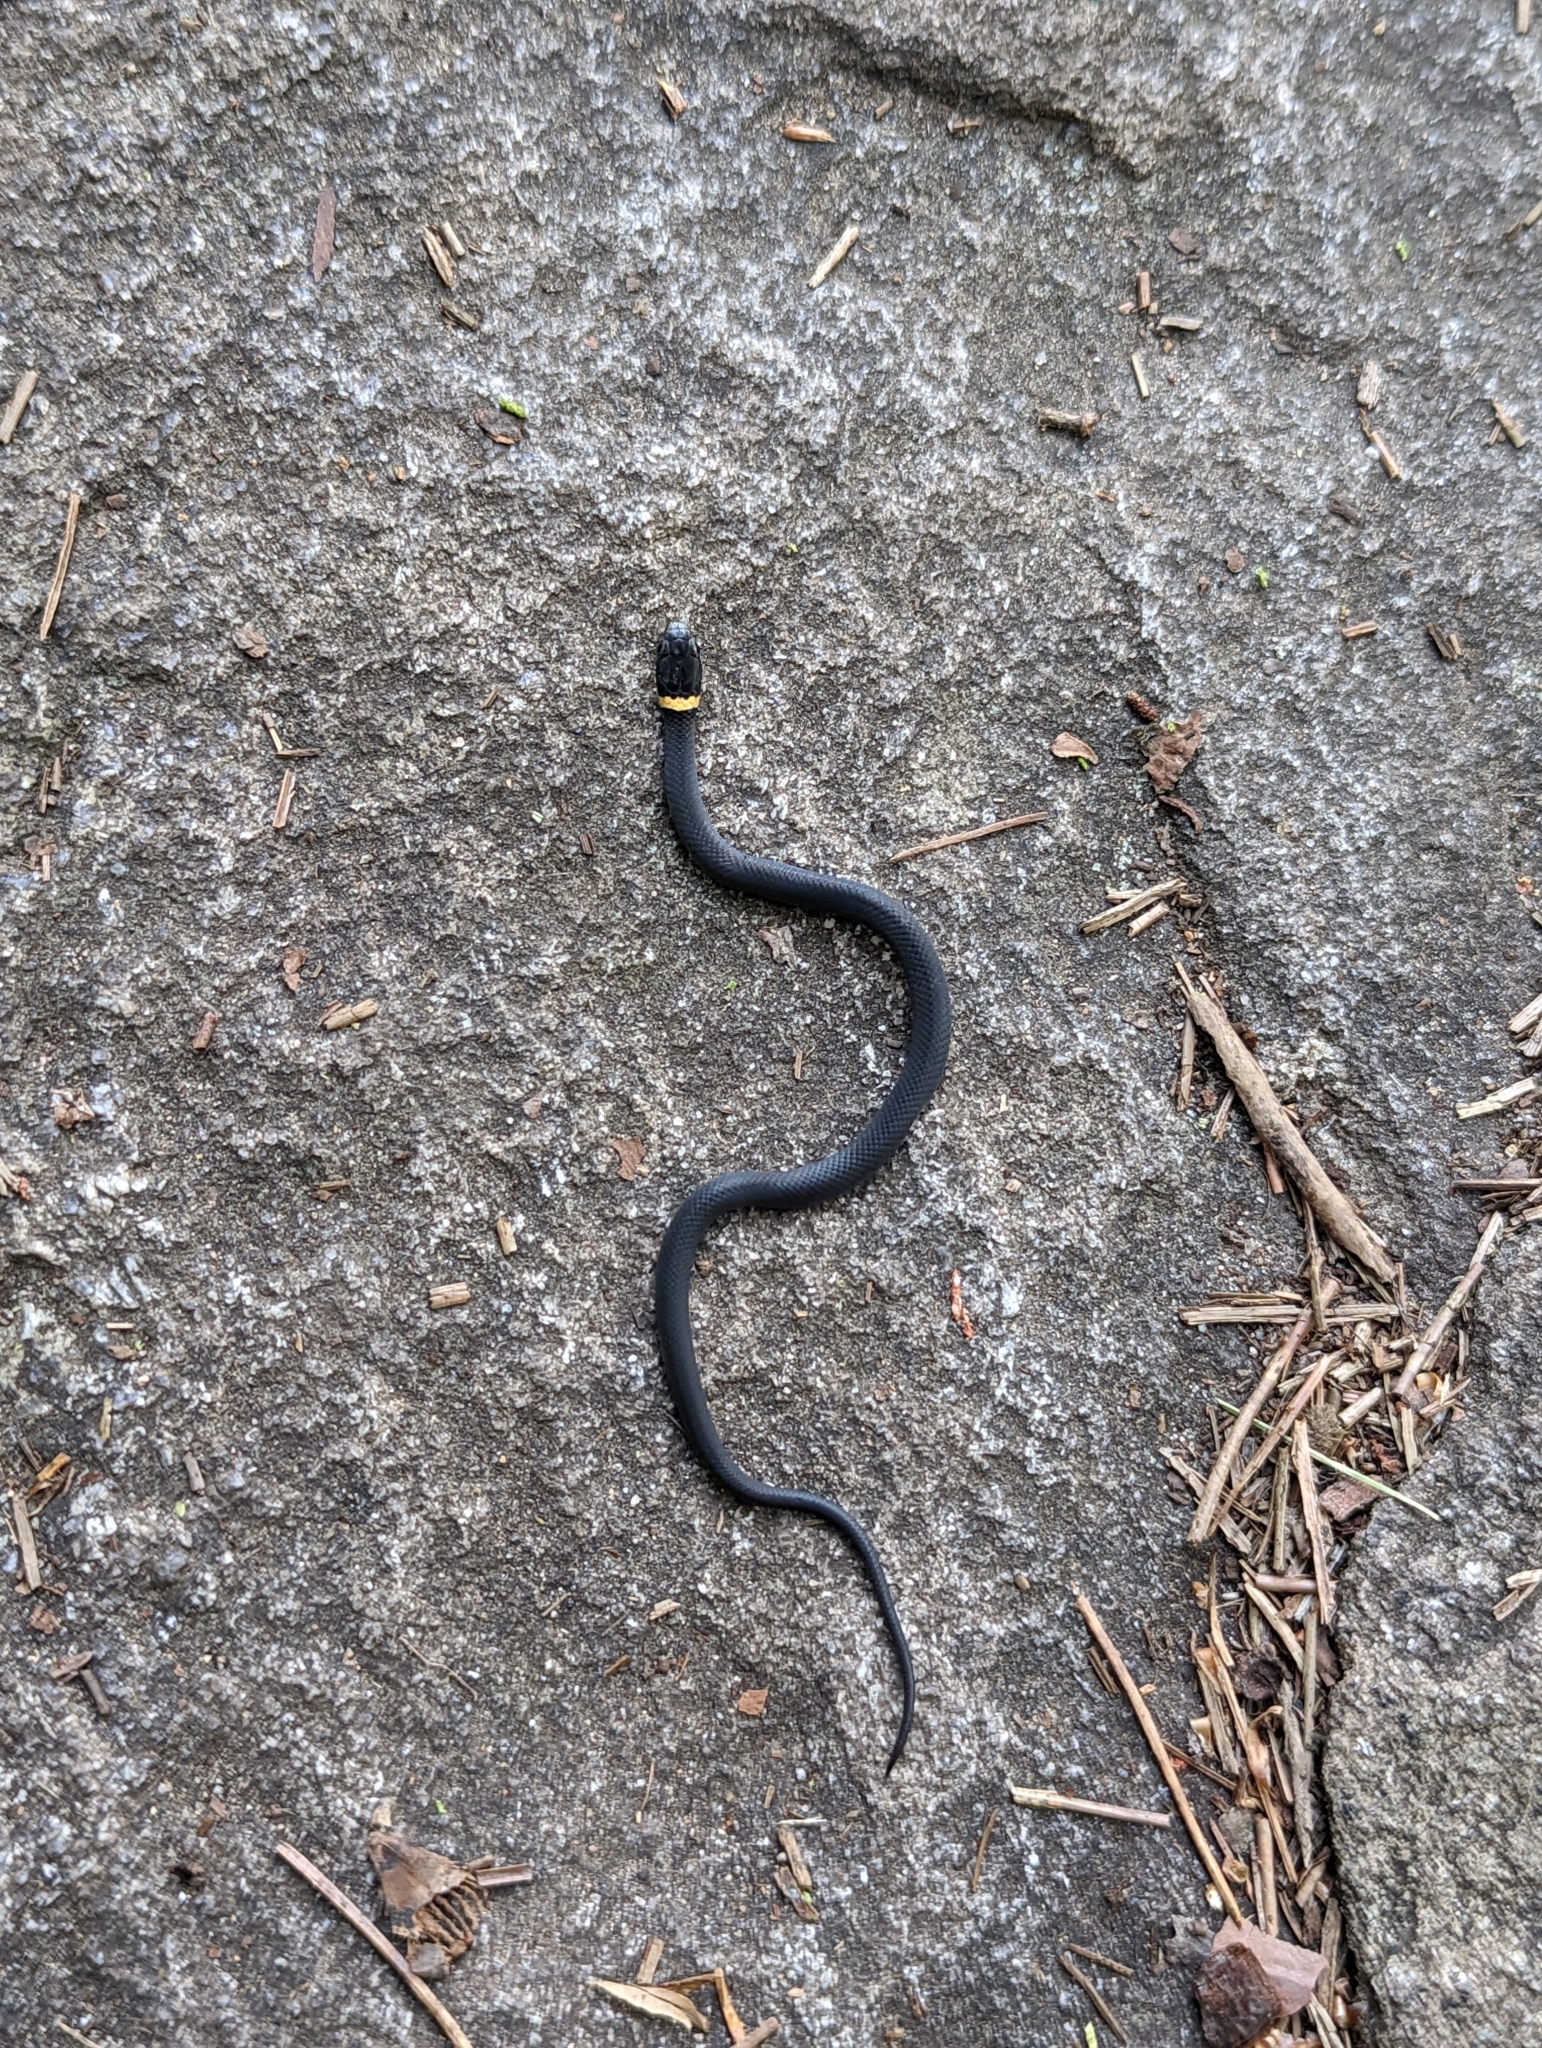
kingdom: Animalia
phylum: Chordata
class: Squamata
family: Colubridae
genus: Diadophis
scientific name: Diadophis punctatus
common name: Ringneck snake
